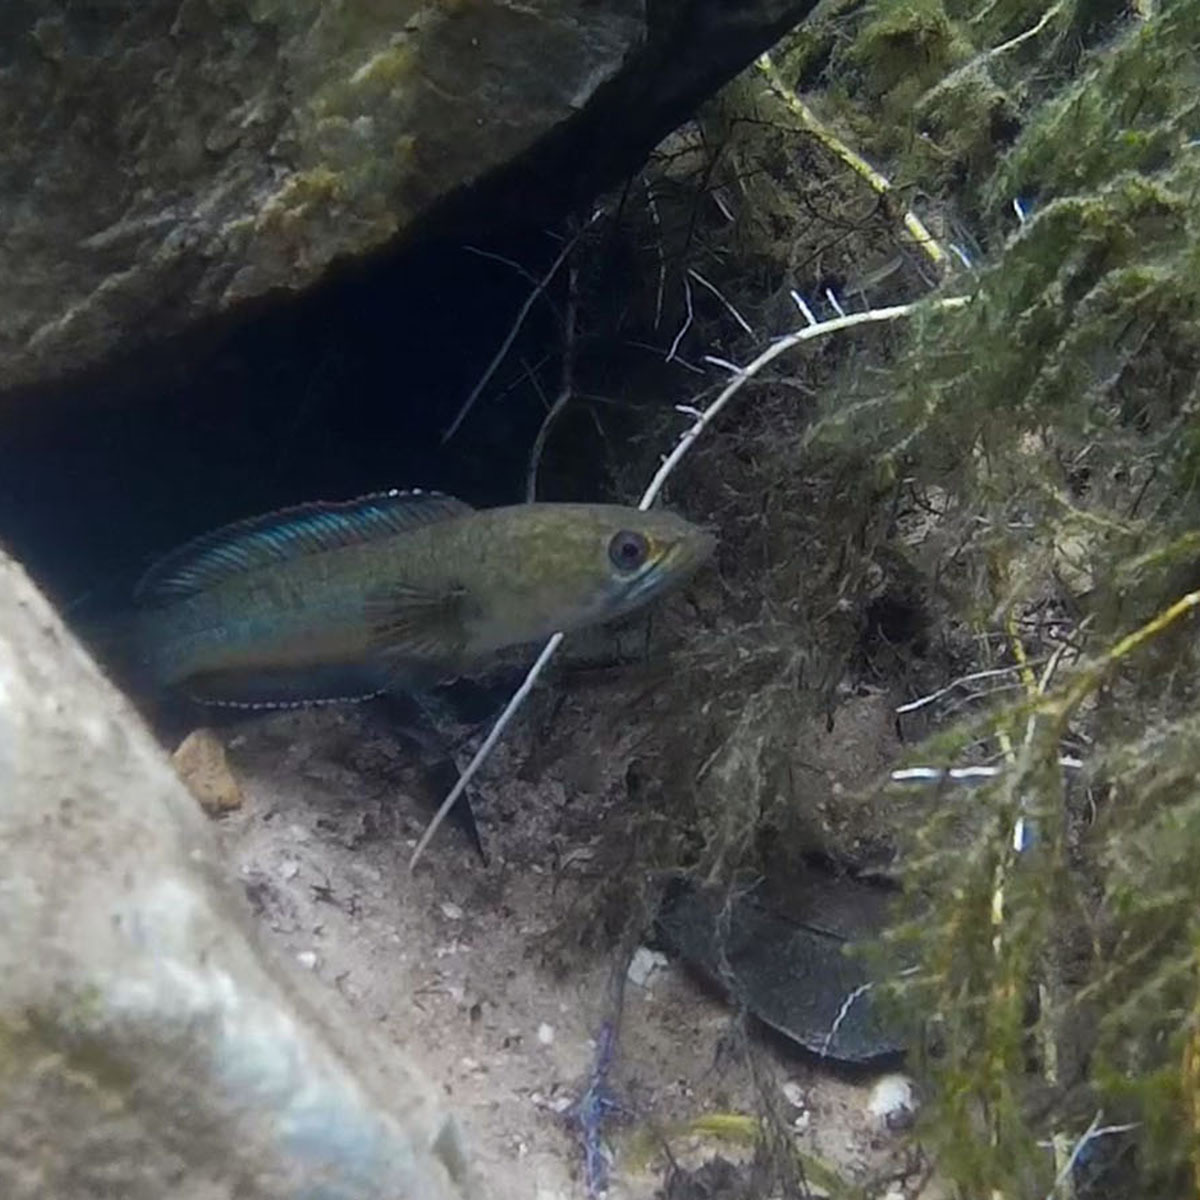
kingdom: Animalia
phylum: Chordata
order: Perciformes
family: Channidae
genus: Channa
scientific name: Channa gachua
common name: Dwarf snakehead
